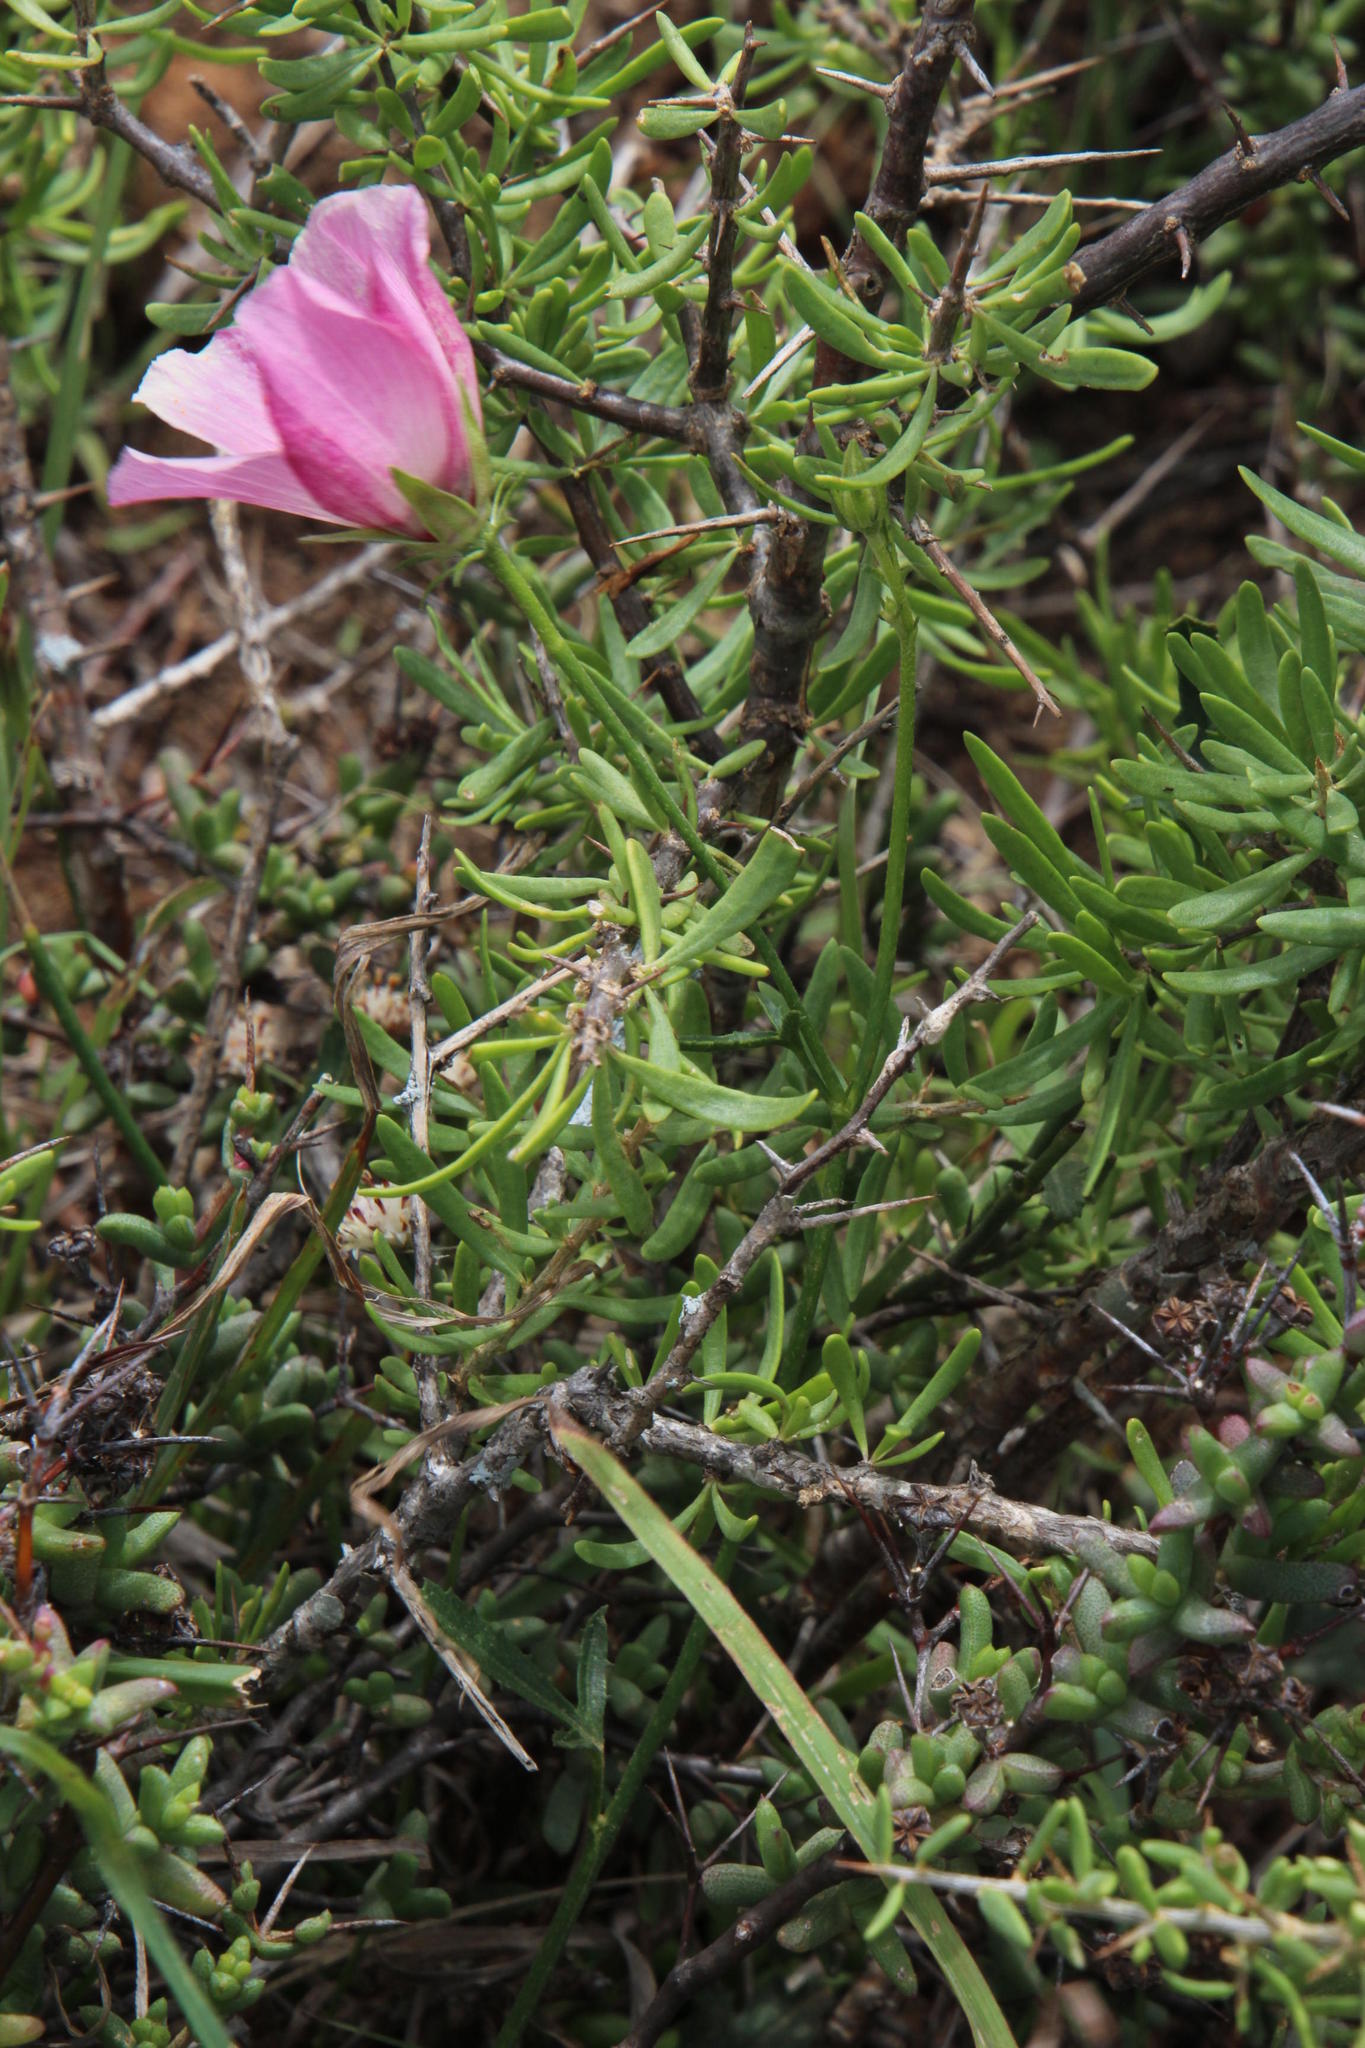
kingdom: Plantae
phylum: Tracheophyta
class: Magnoliopsida
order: Malvales
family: Malvaceae
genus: Hibiscus
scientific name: Hibiscus pusillus
